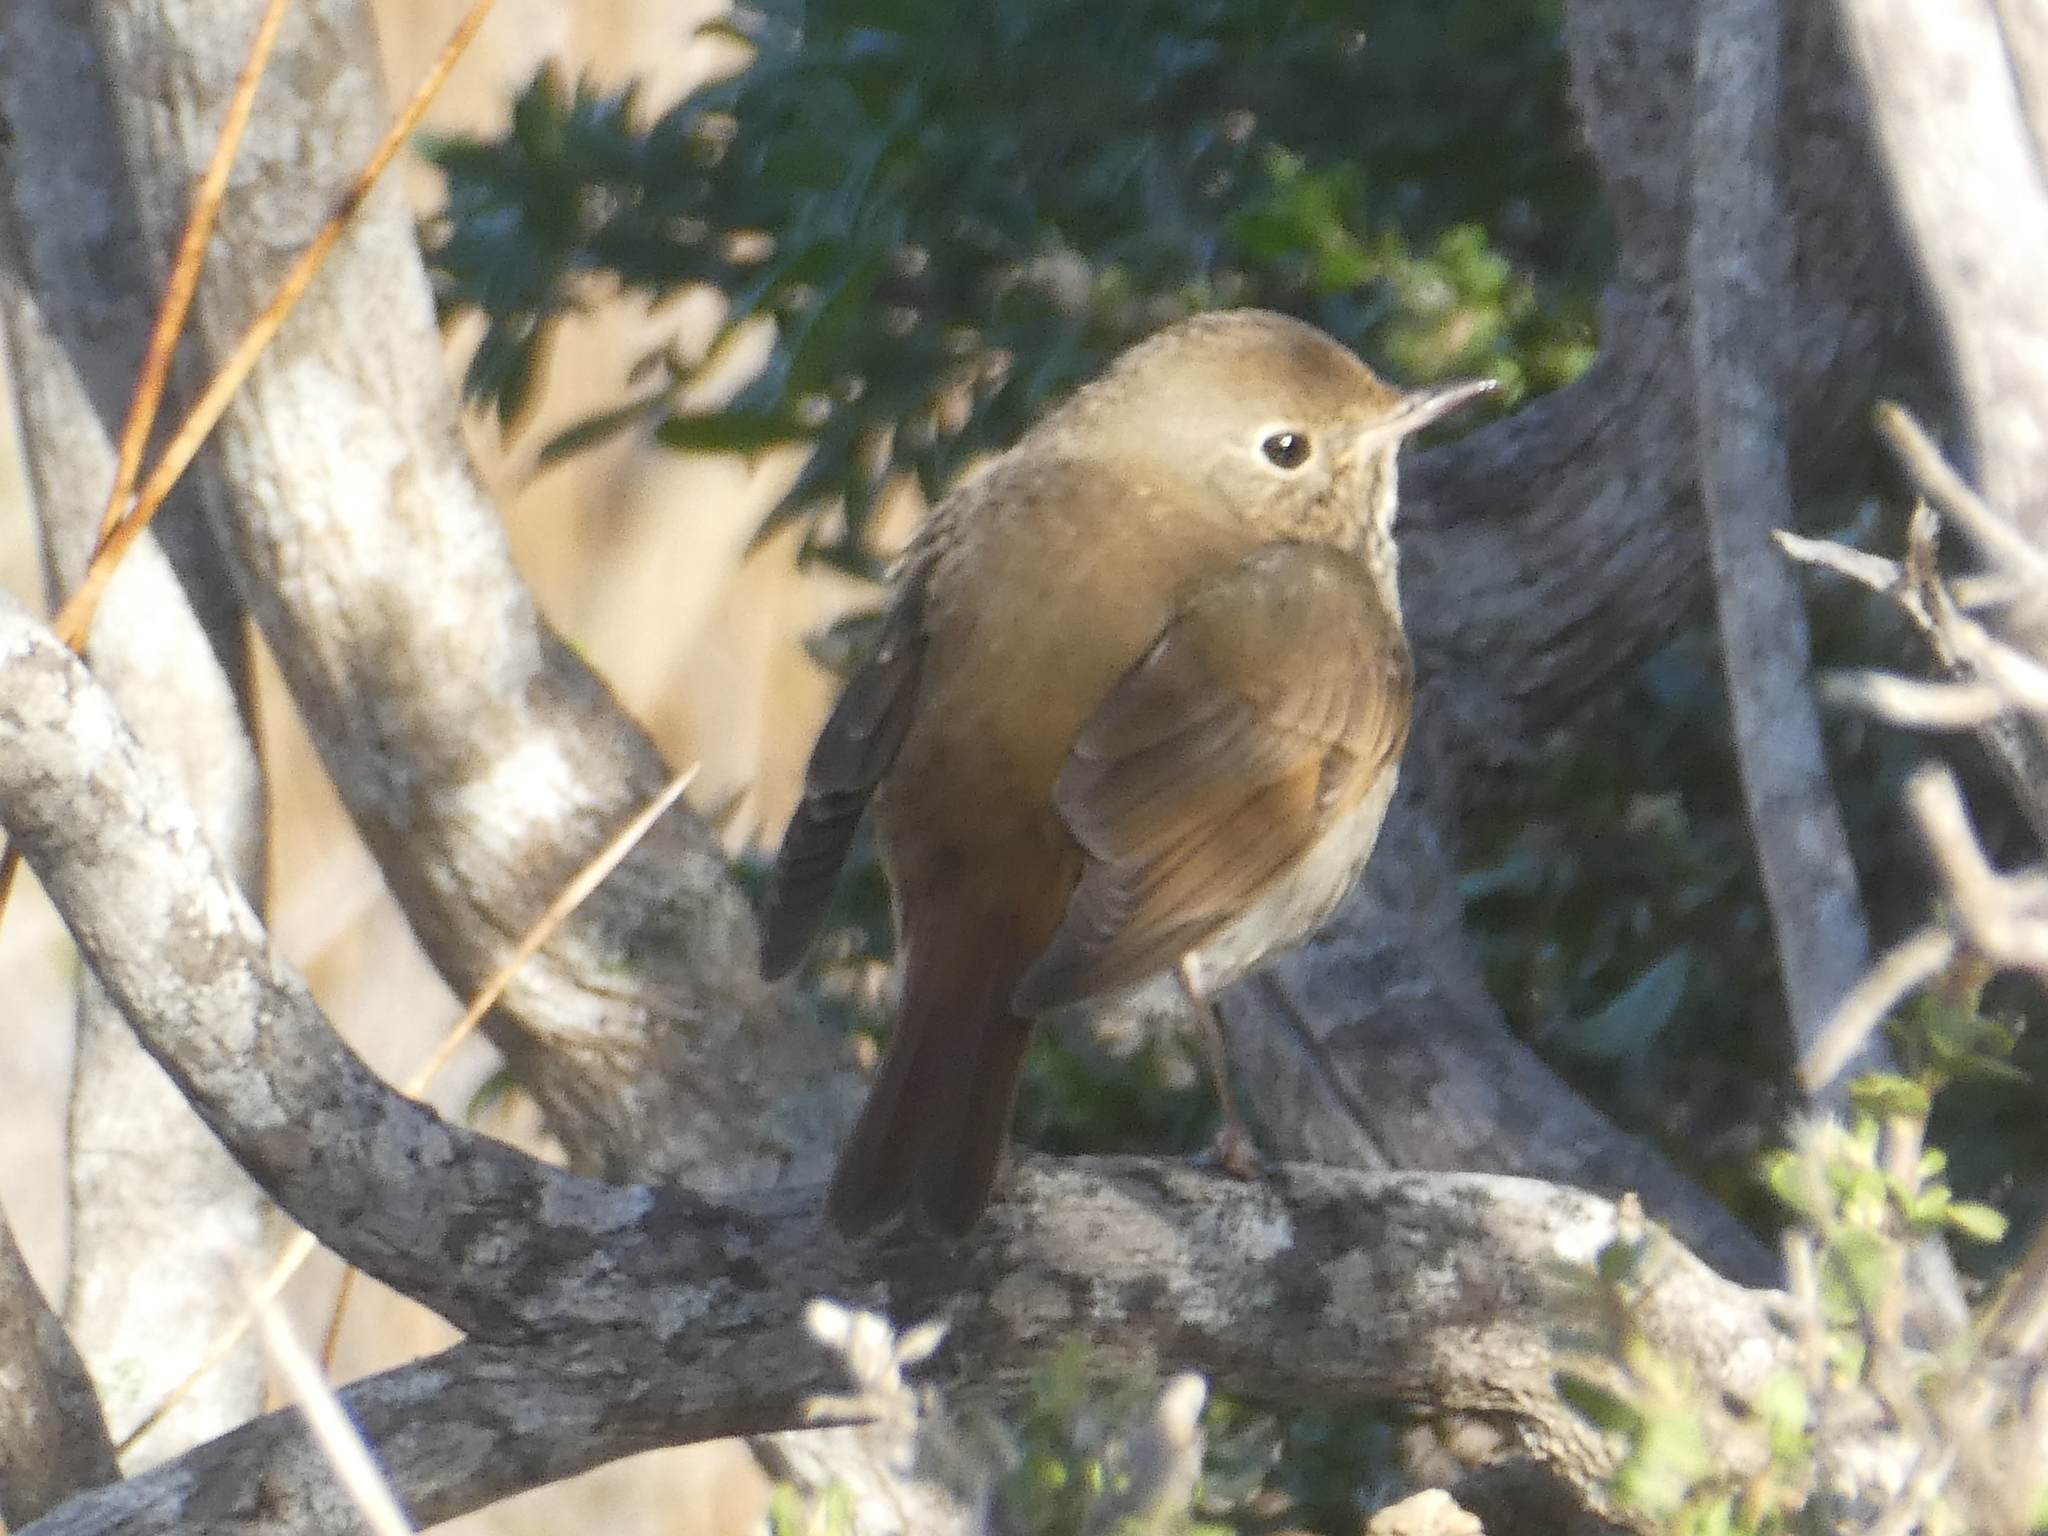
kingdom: Animalia
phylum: Chordata
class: Aves
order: Passeriformes
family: Turdidae
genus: Catharus
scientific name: Catharus guttatus
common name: Hermit thrush
